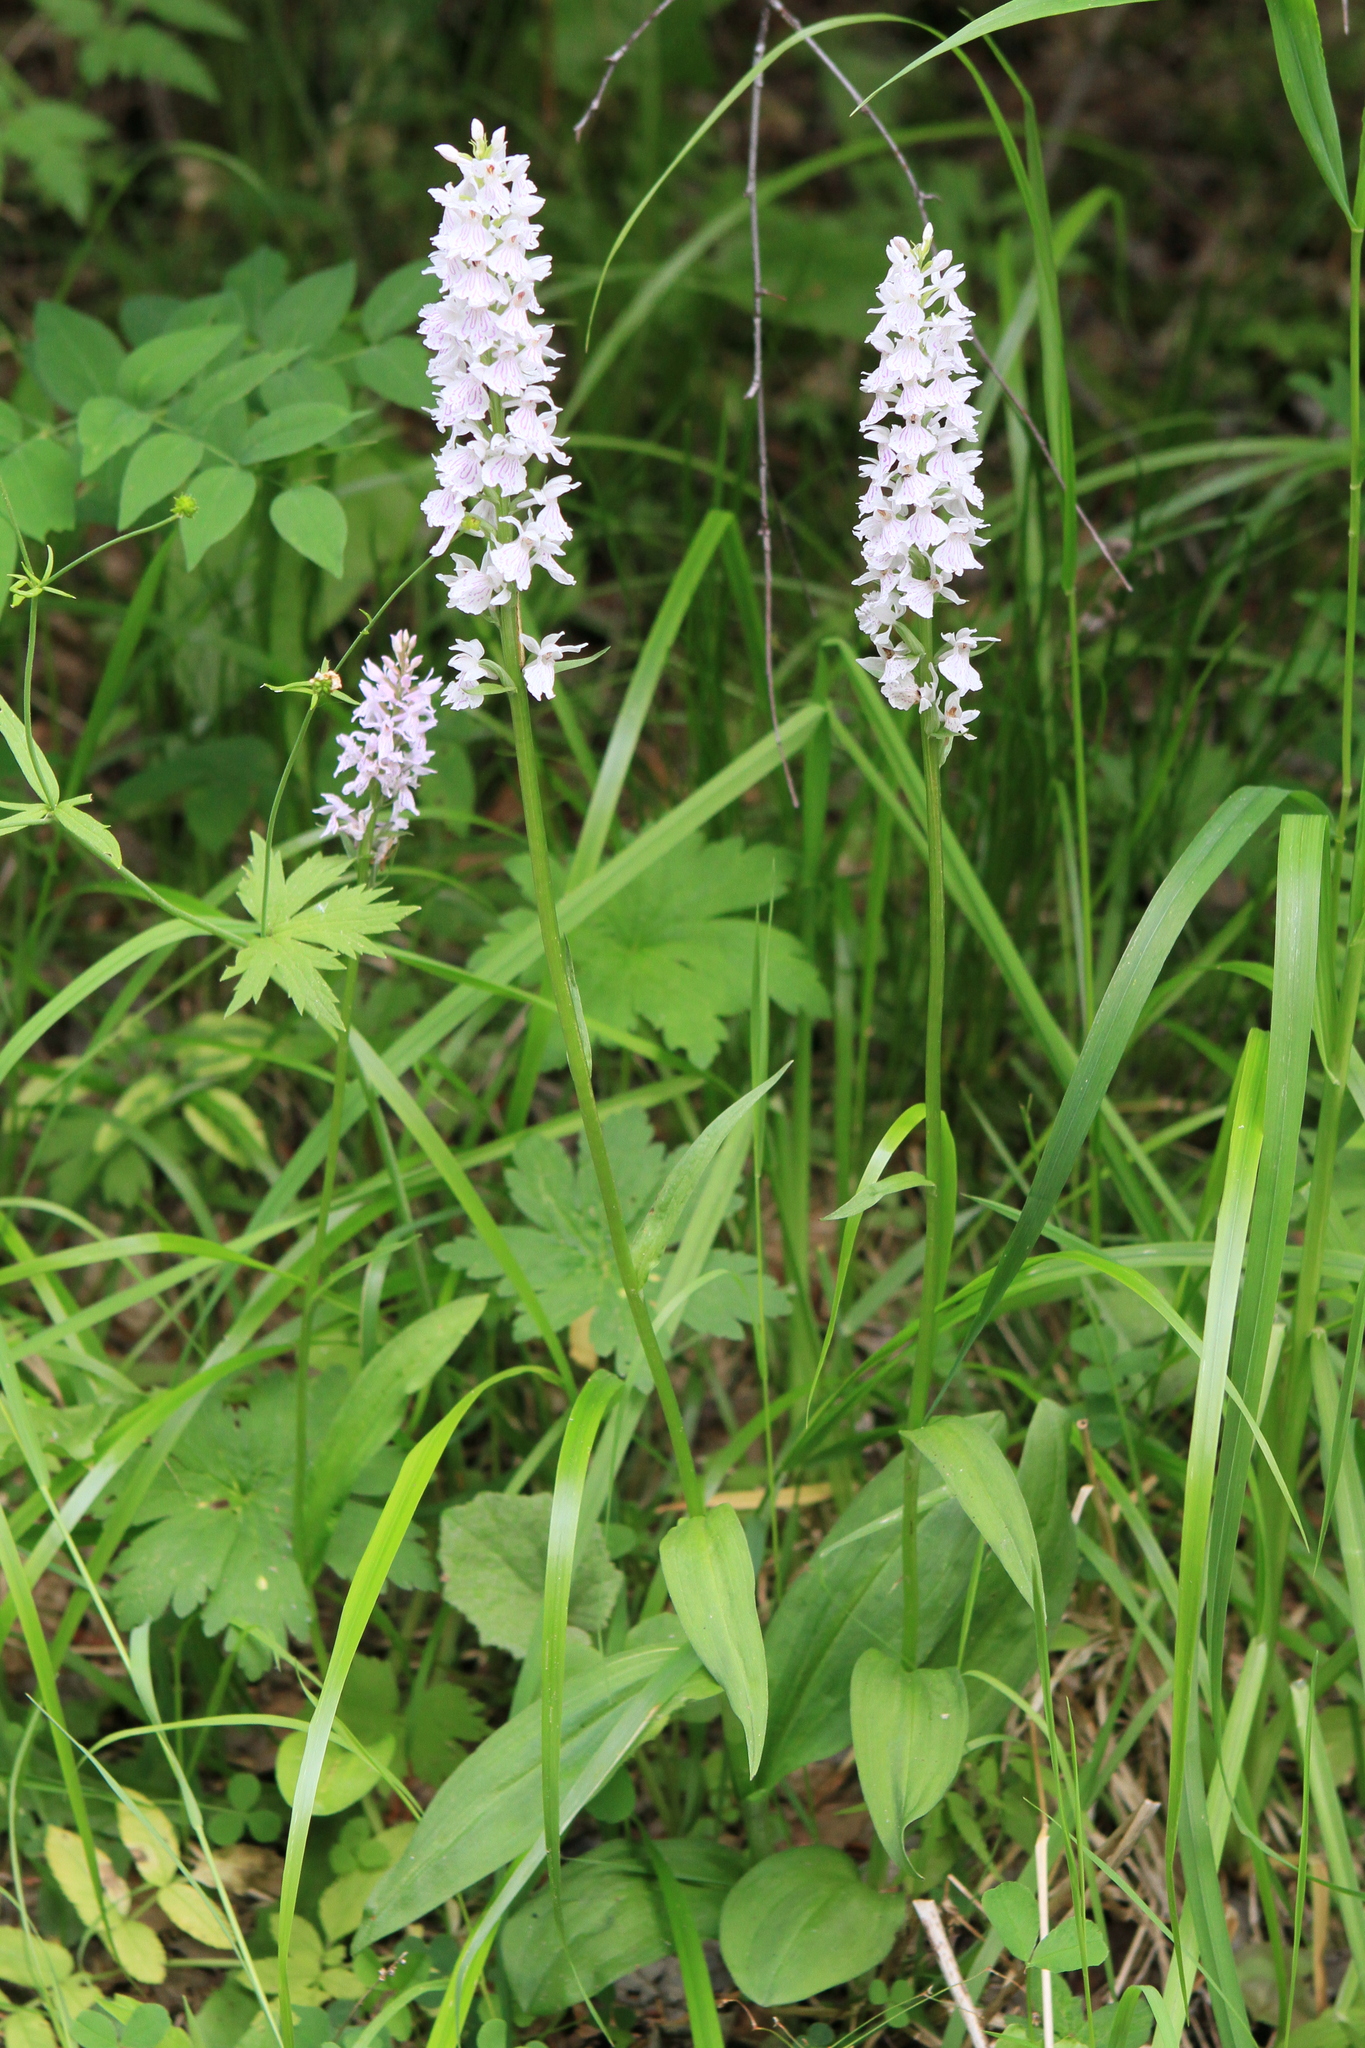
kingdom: Plantae
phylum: Tracheophyta
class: Liliopsida
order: Asparagales
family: Orchidaceae
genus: Dactylorhiza
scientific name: Dactylorhiza maculata
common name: Heath spotted-orchid
